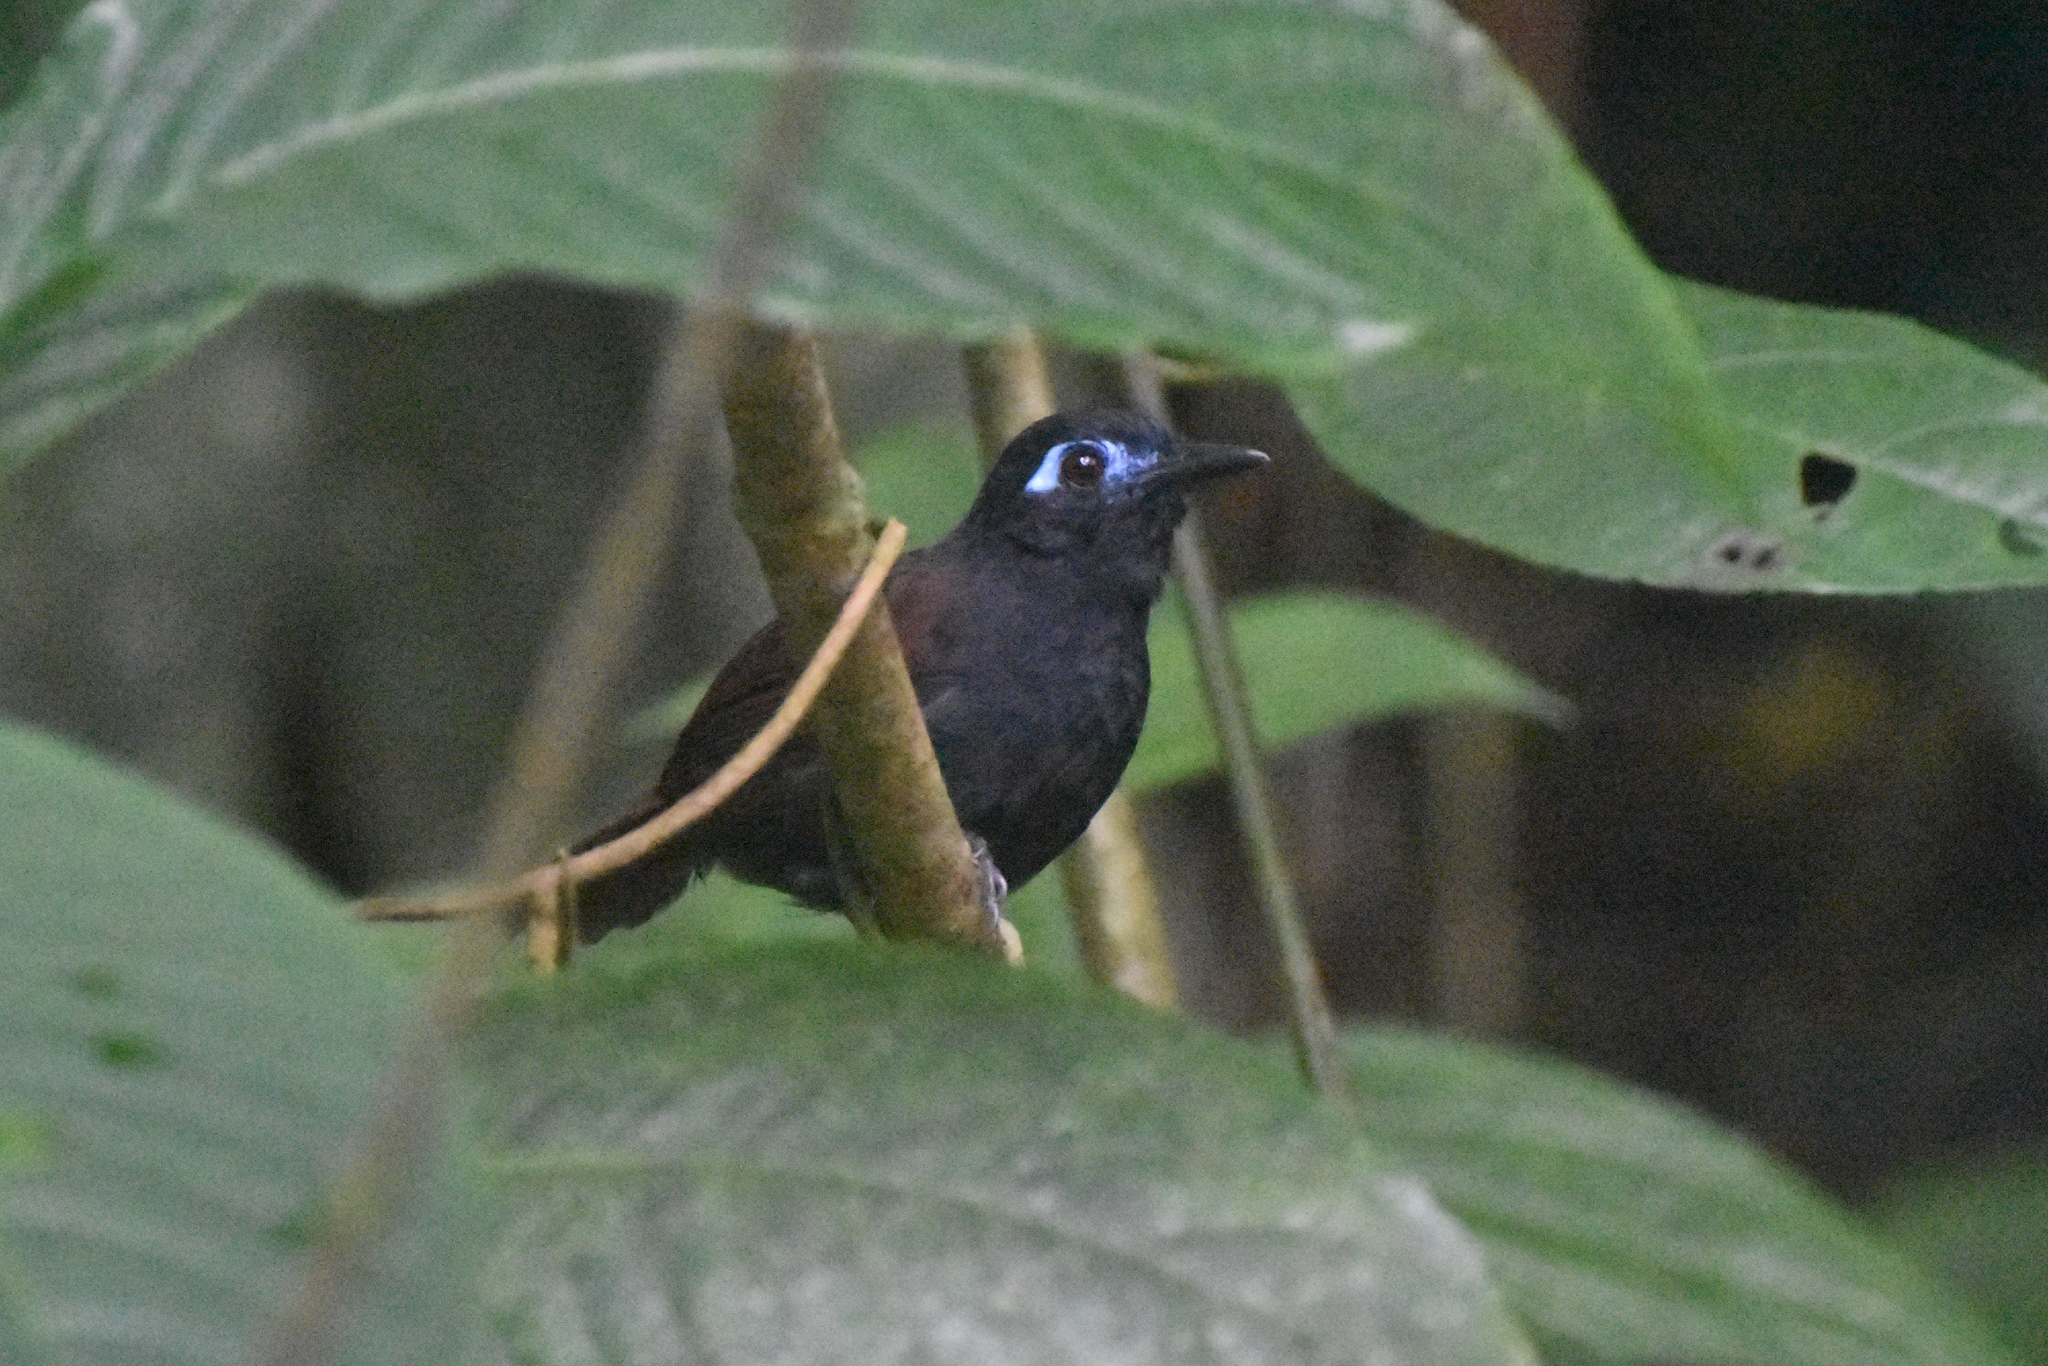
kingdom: Animalia
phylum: Chordata
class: Aves
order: Passeriformes
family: Thamnophilidae
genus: Myrmeciza
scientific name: Myrmeciza exsul
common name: Chestnut-backed antbird
